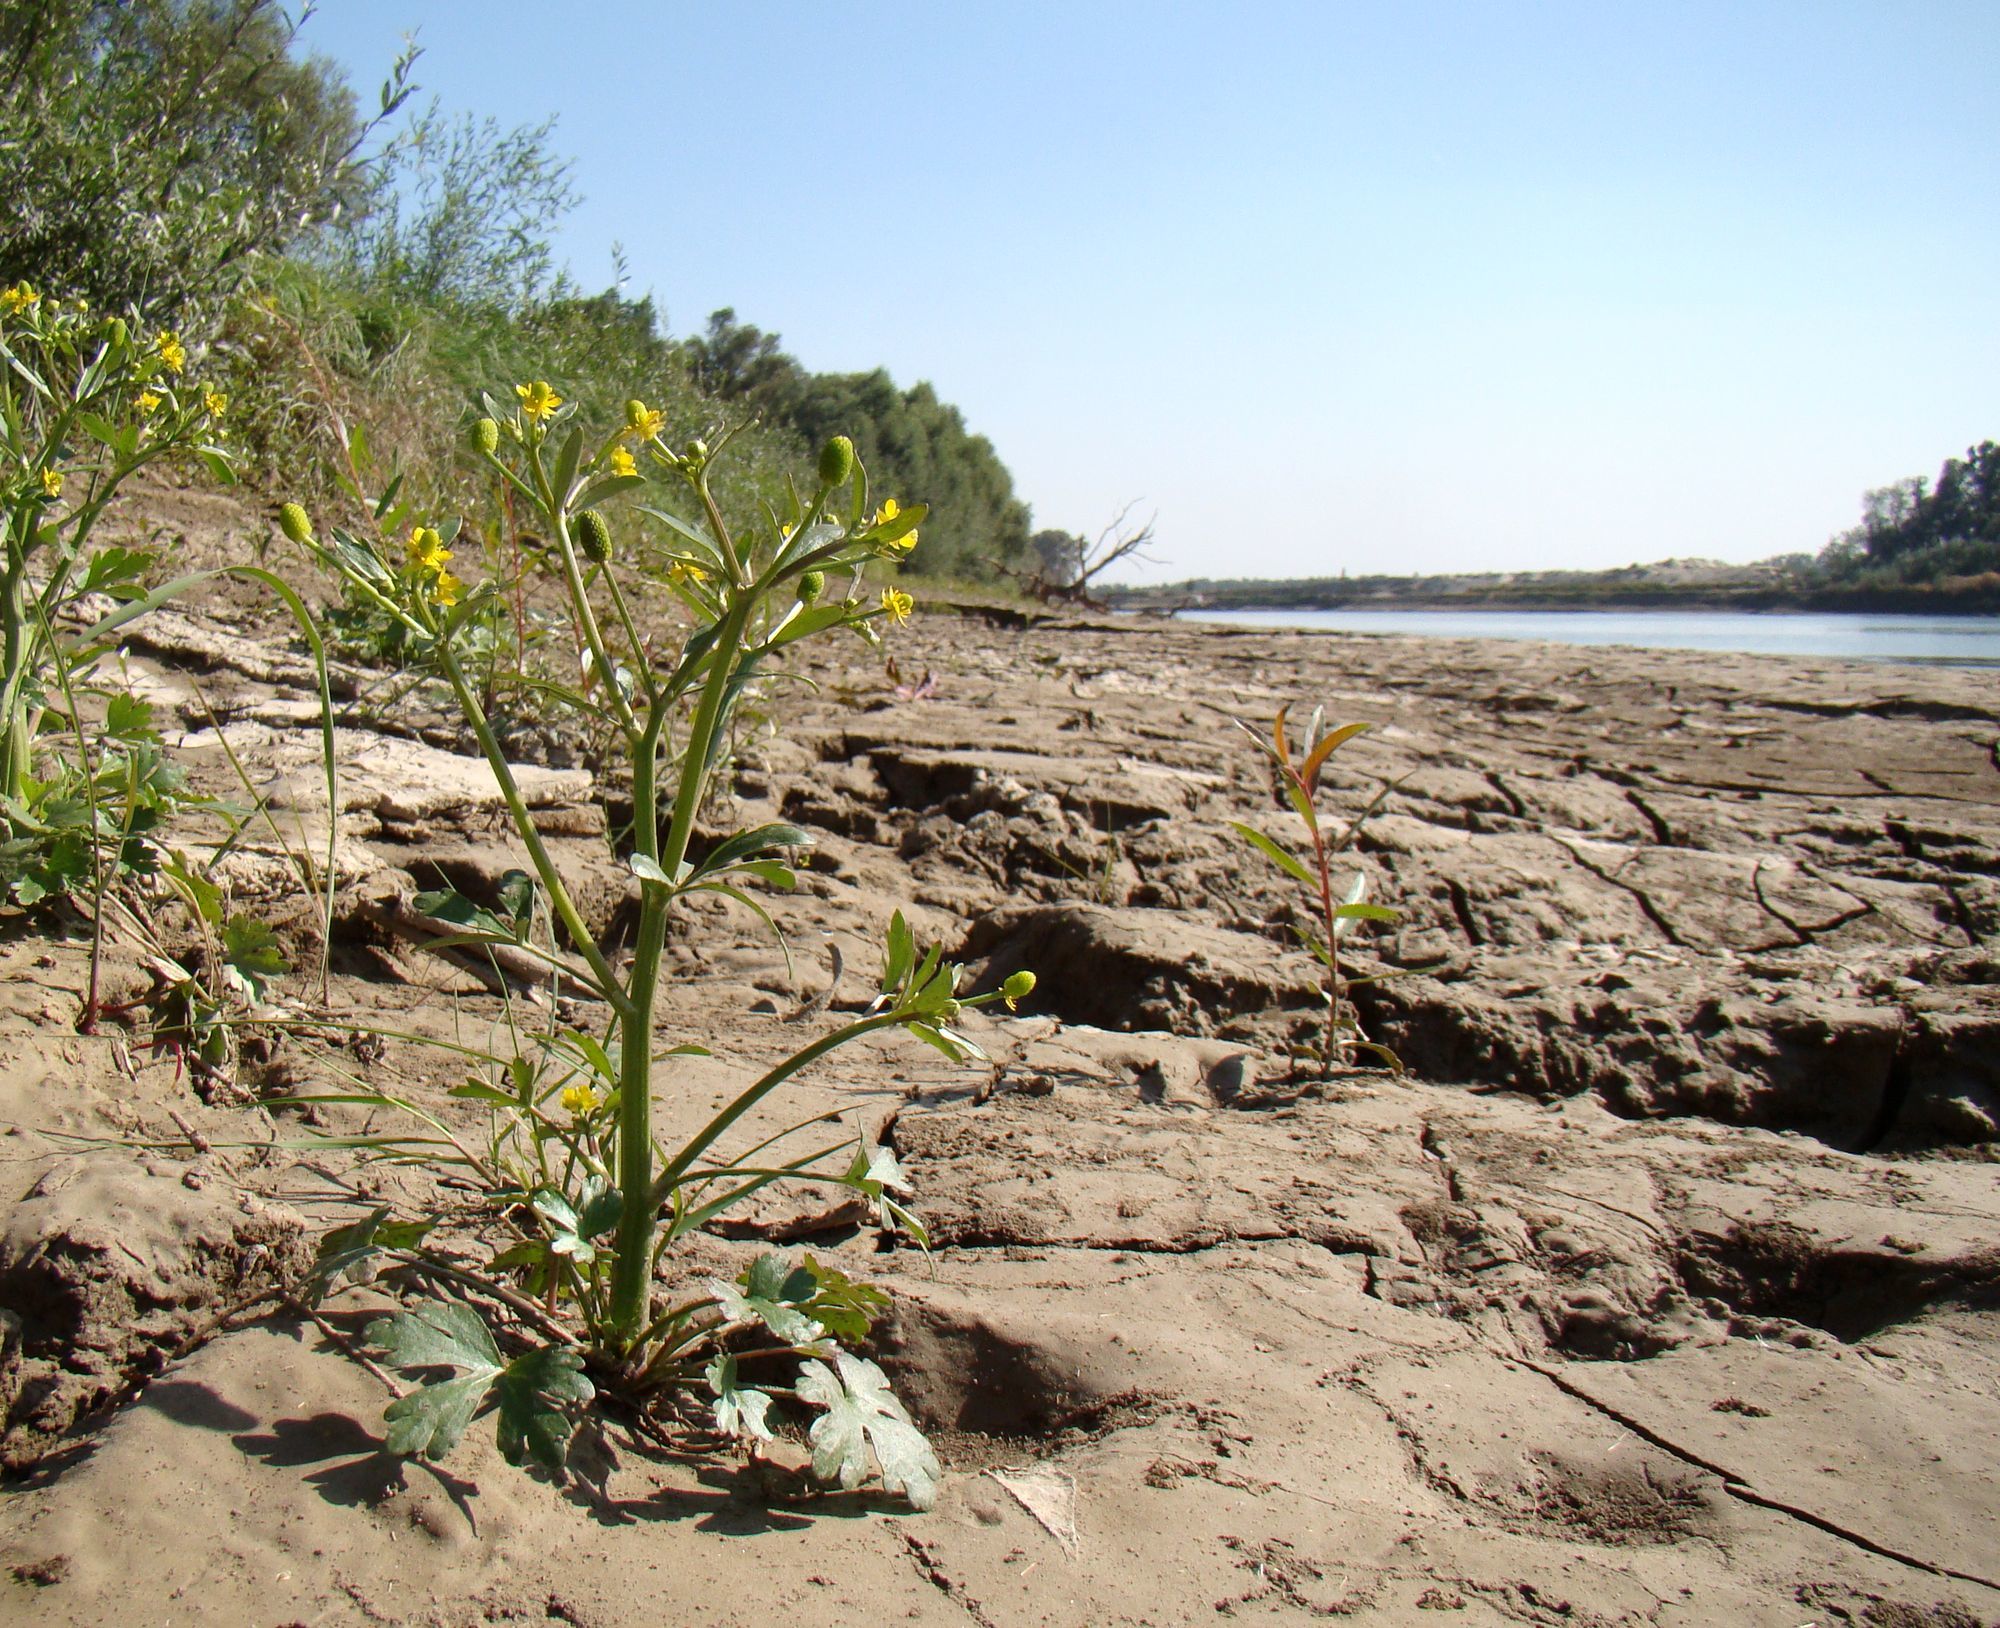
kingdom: Plantae
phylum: Tracheophyta
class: Magnoliopsida
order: Ranunculales
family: Ranunculaceae
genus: Ranunculus
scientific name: Ranunculus sceleratus
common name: Celery-leaved buttercup
